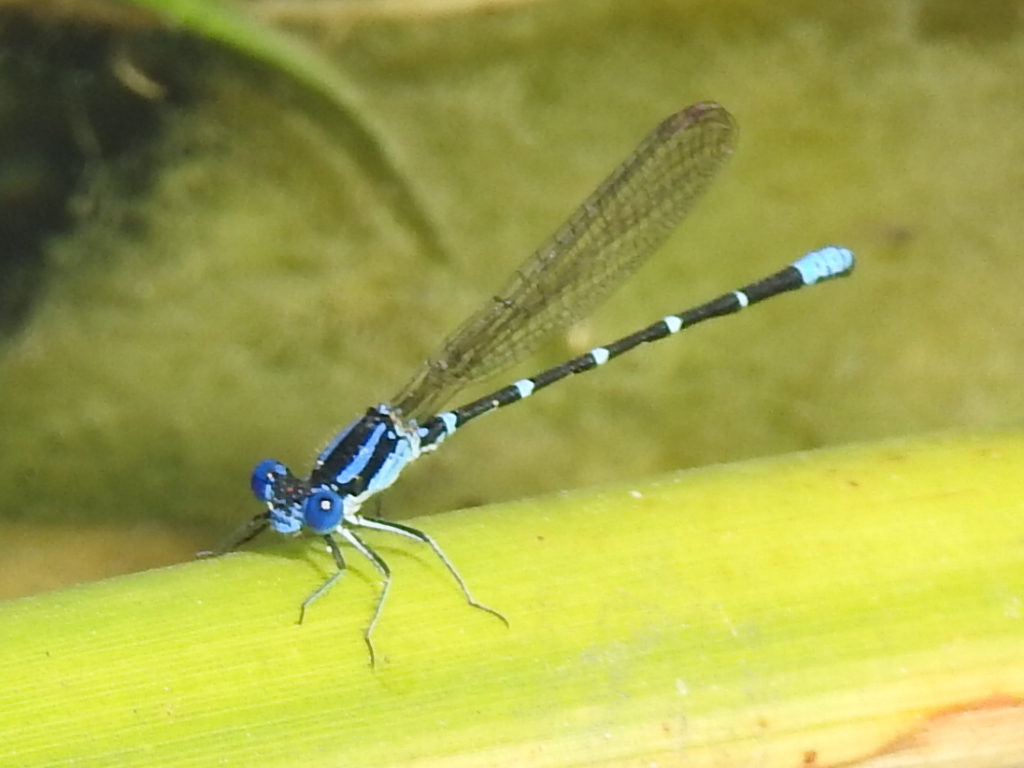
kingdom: Animalia
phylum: Arthropoda
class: Insecta
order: Odonata
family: Coenagrionidae
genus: Argia
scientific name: Argia sedula
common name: Blue-ringed dancer
